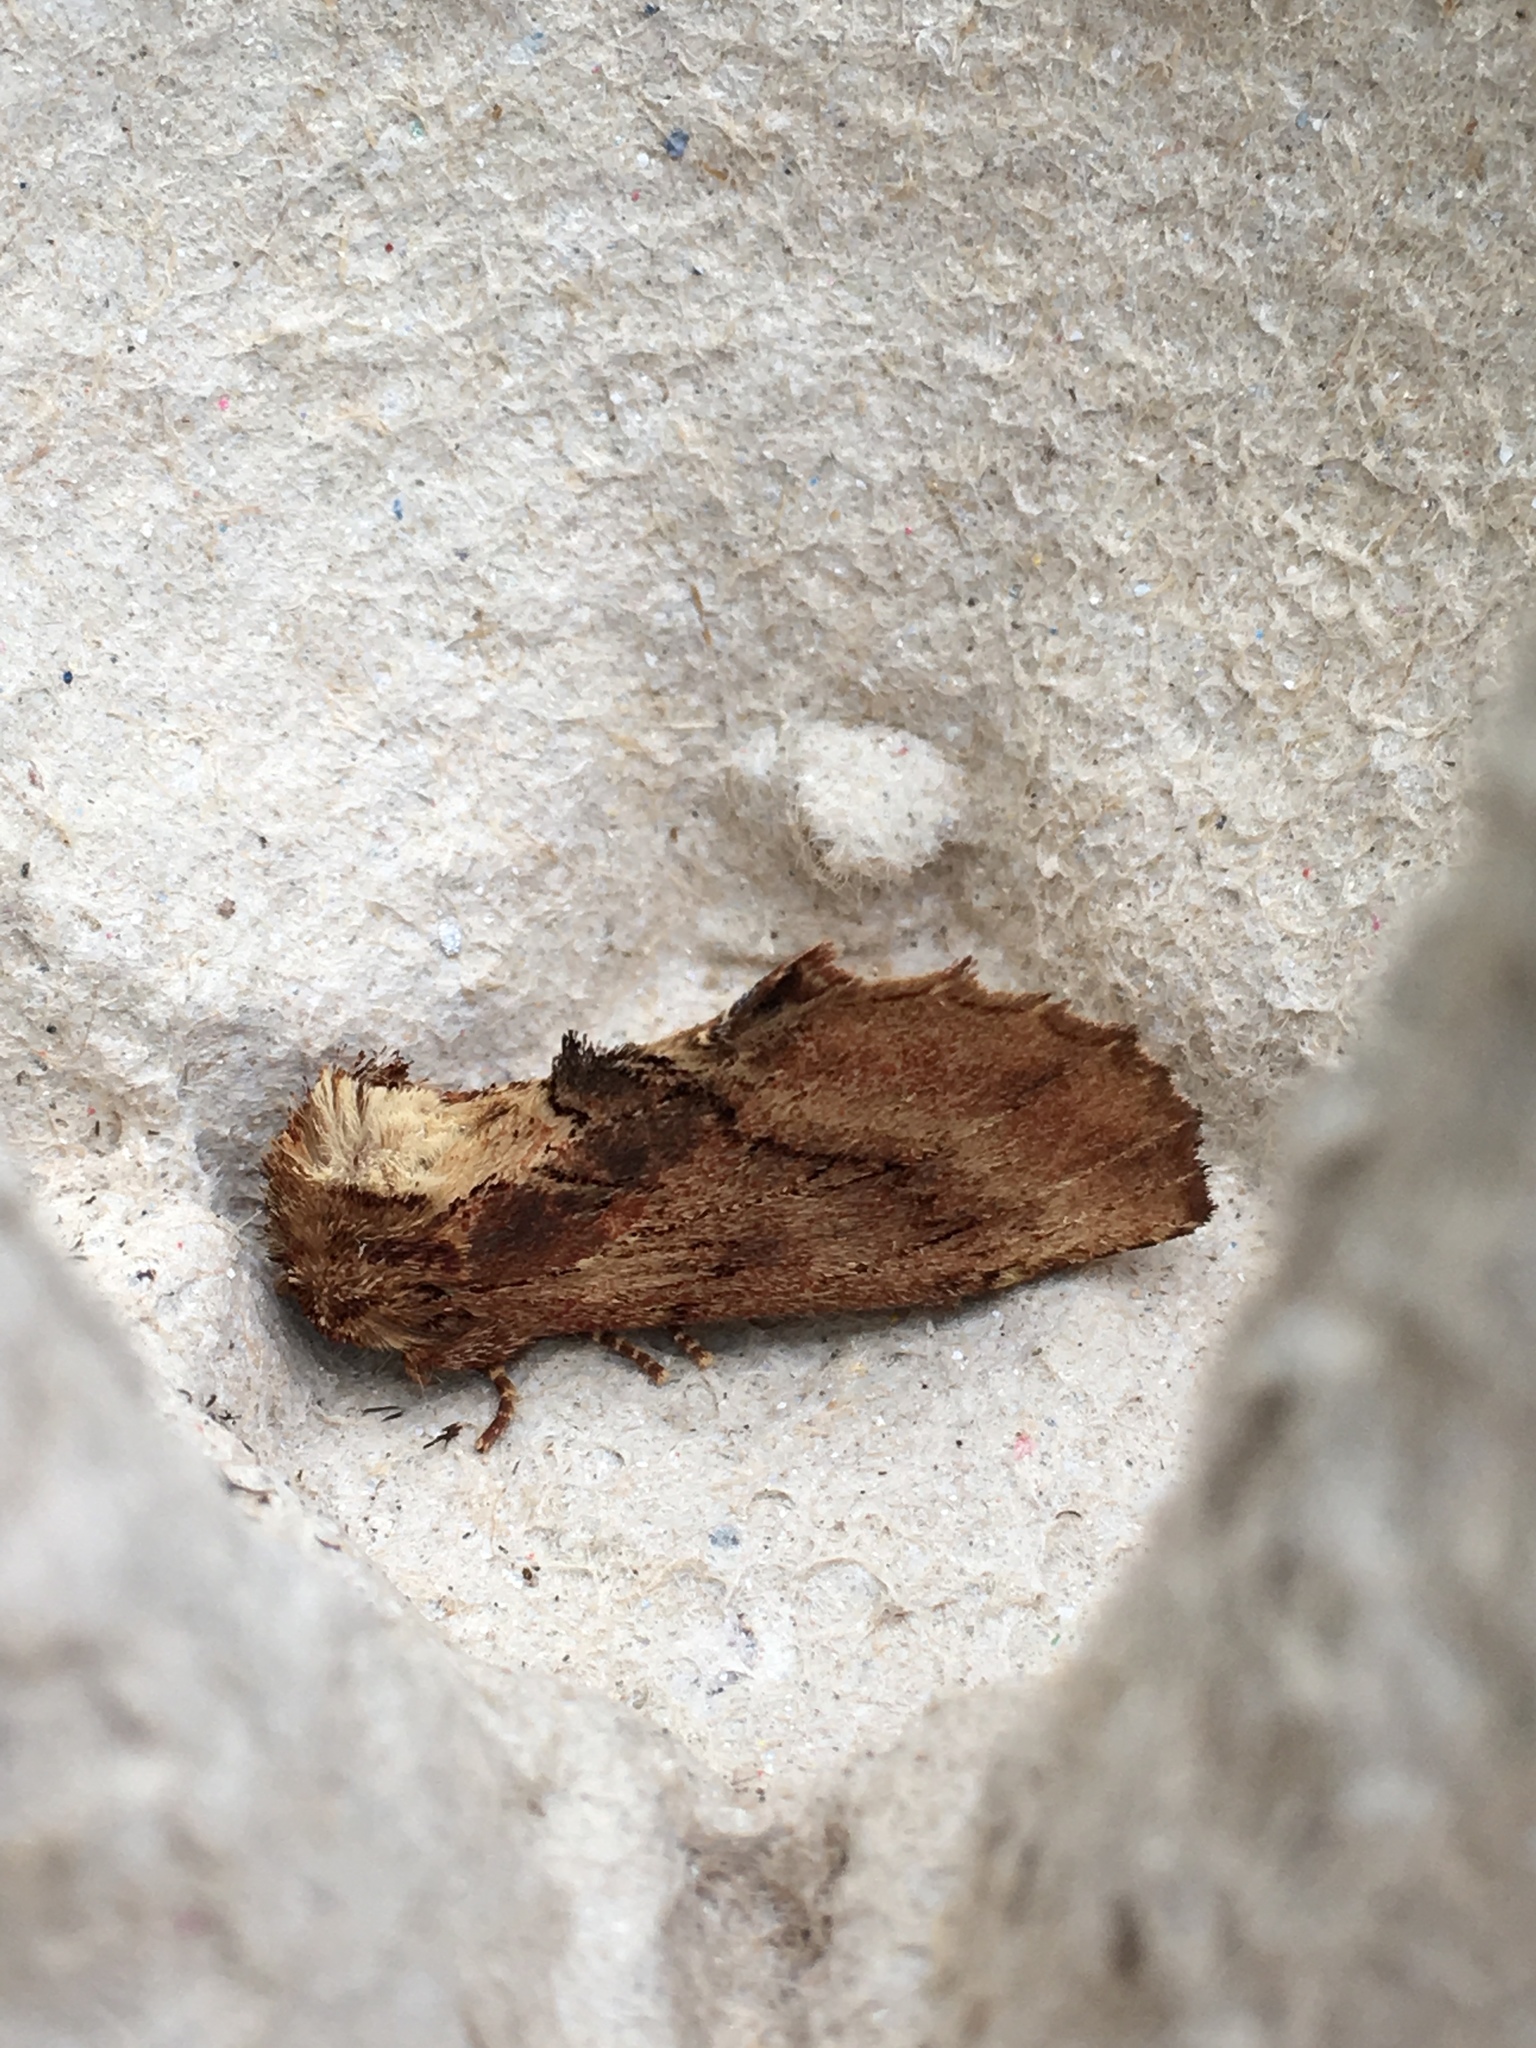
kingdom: Animalia
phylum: Arthropoda
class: Insecta
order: Lepidoptera
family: Notodontidae
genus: Ptilodon
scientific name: Ptilodon capucina
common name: Coxcomb prominent
